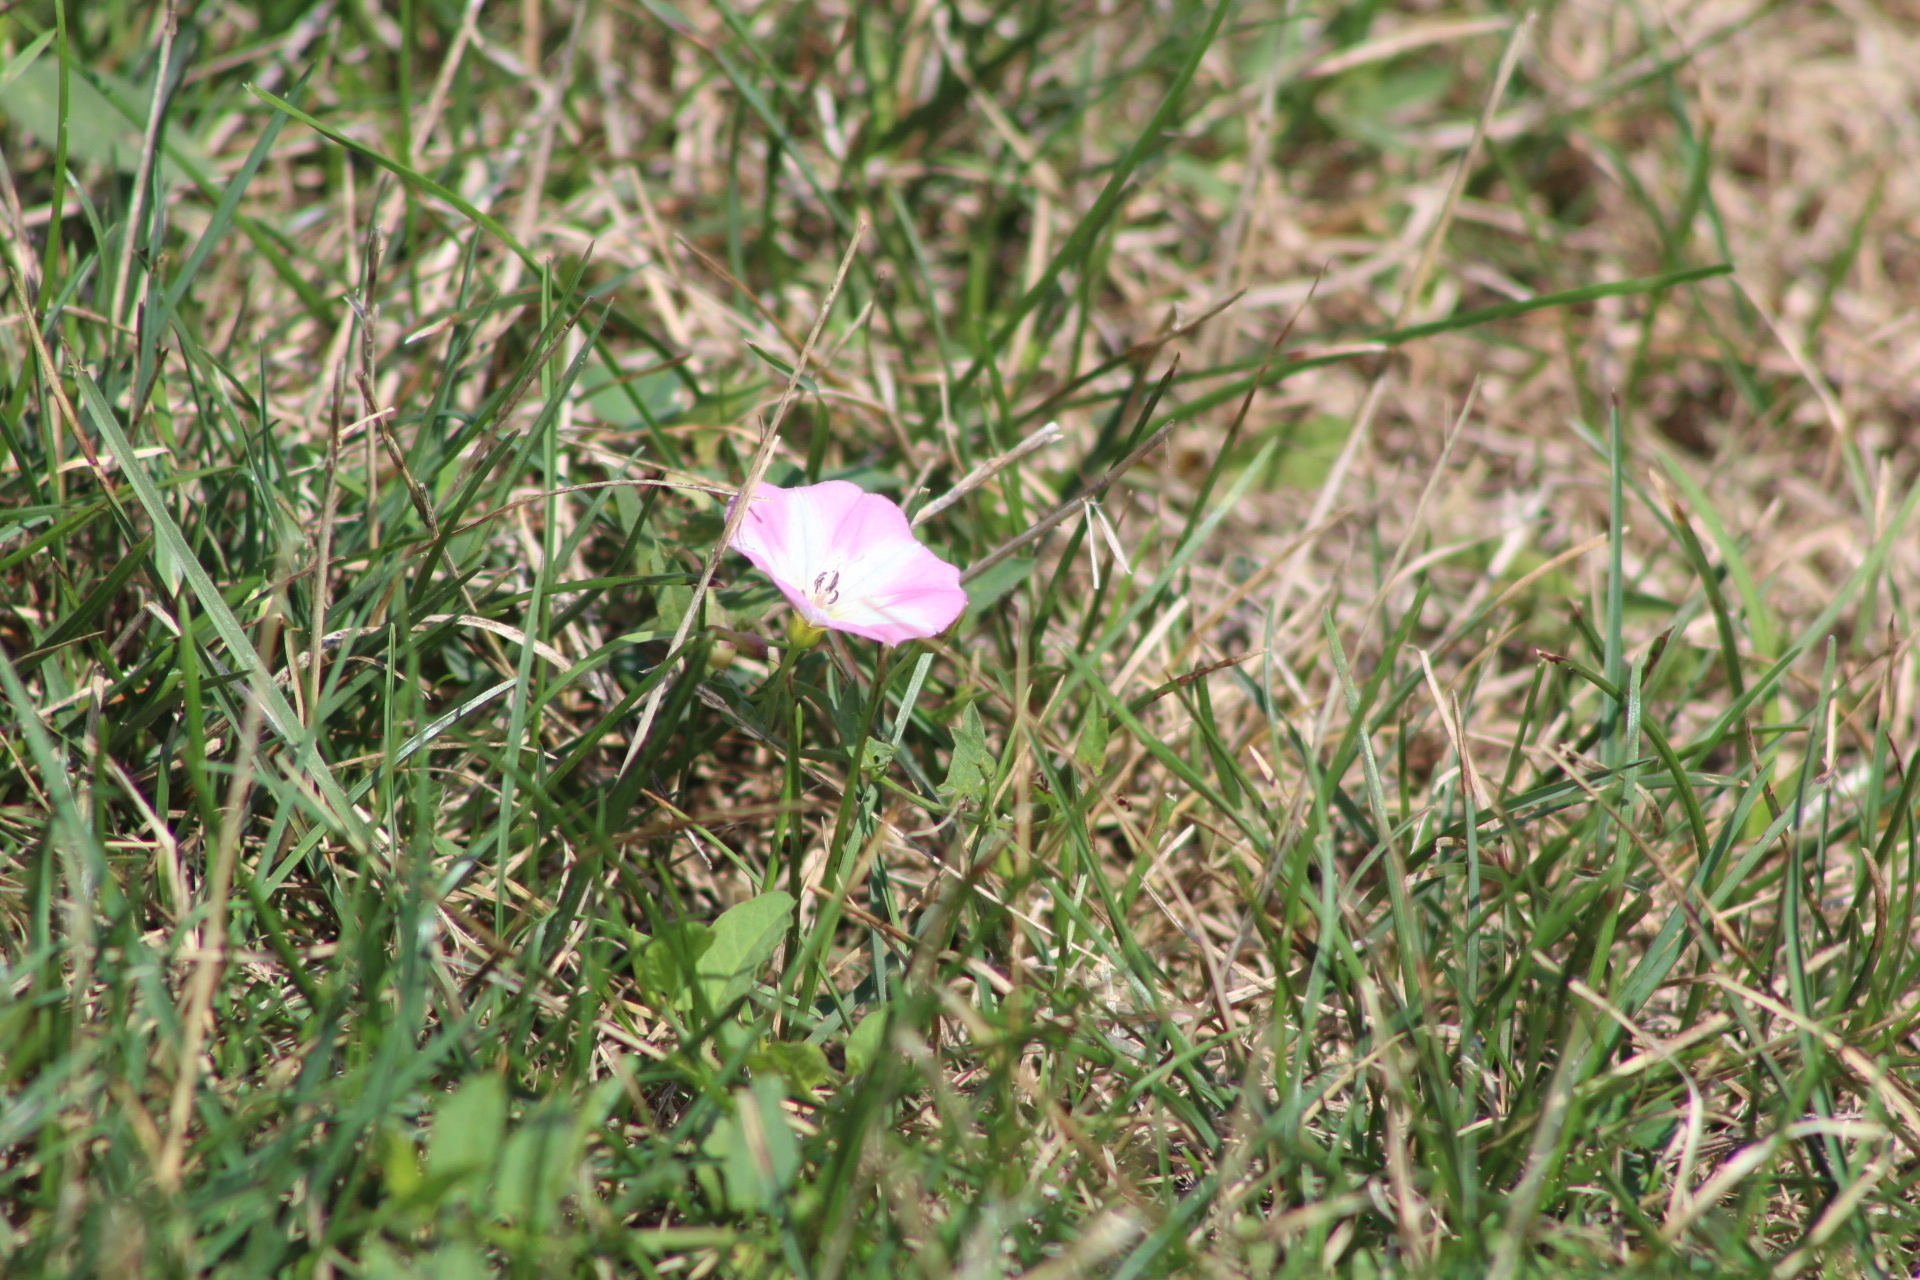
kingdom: Plantae
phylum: Tracheophyta
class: Magnoliopsida
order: Solanales
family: Convolvulaceae
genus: Convolvulus
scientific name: Convolvulus arvensis
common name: Field bindweed
